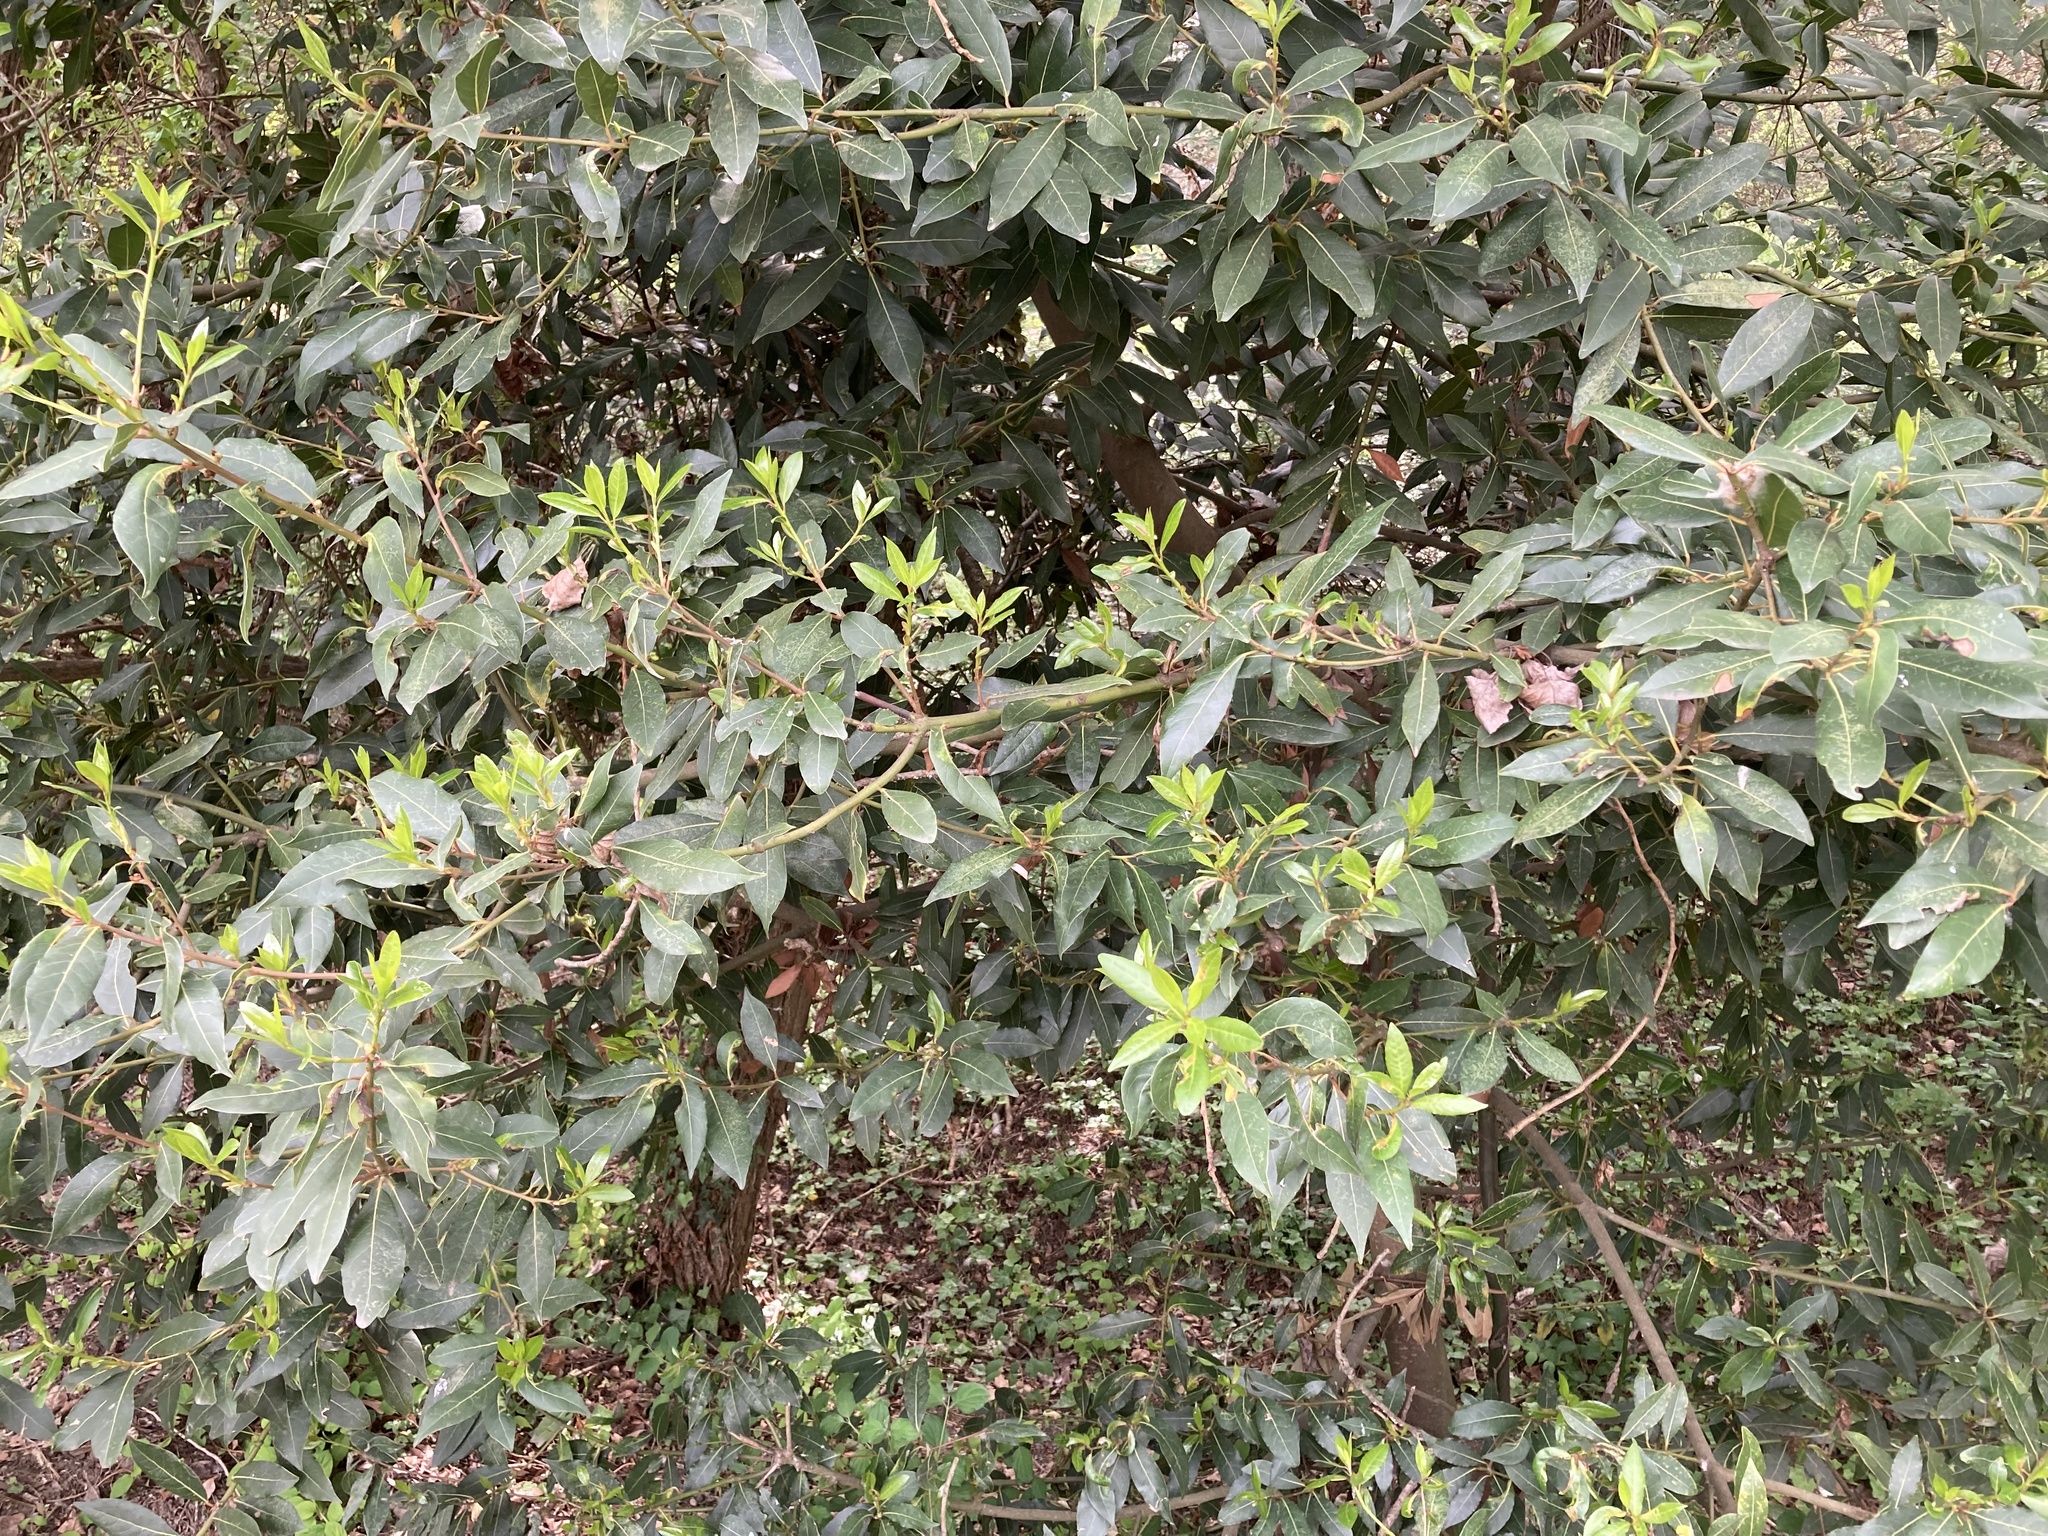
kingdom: Plantae
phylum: Tracheophyta
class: Magnoliopsida
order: Laurales
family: Lauraceae
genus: Laurus
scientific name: Laurus nobilis
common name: Bay
